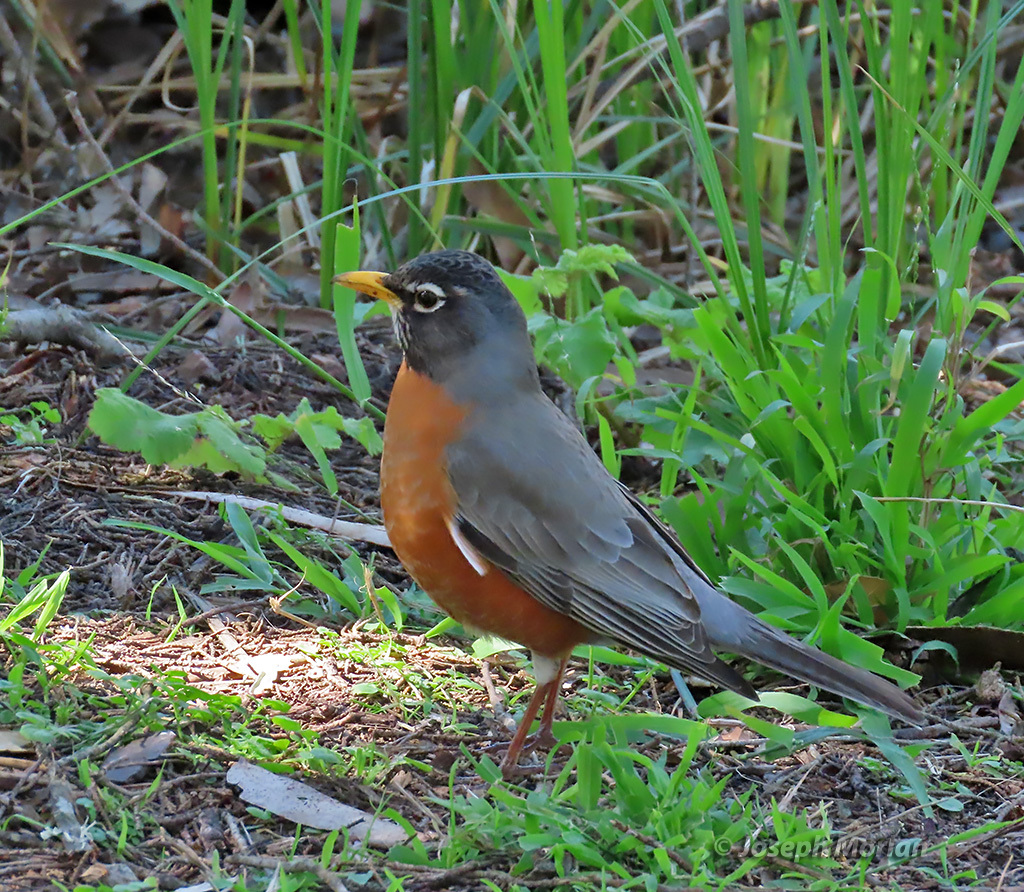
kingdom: Animalia
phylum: Chordata
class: Aves
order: Passeriformes
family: Turdidae
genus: Turdus
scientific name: Turdus migratorius
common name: American robin
